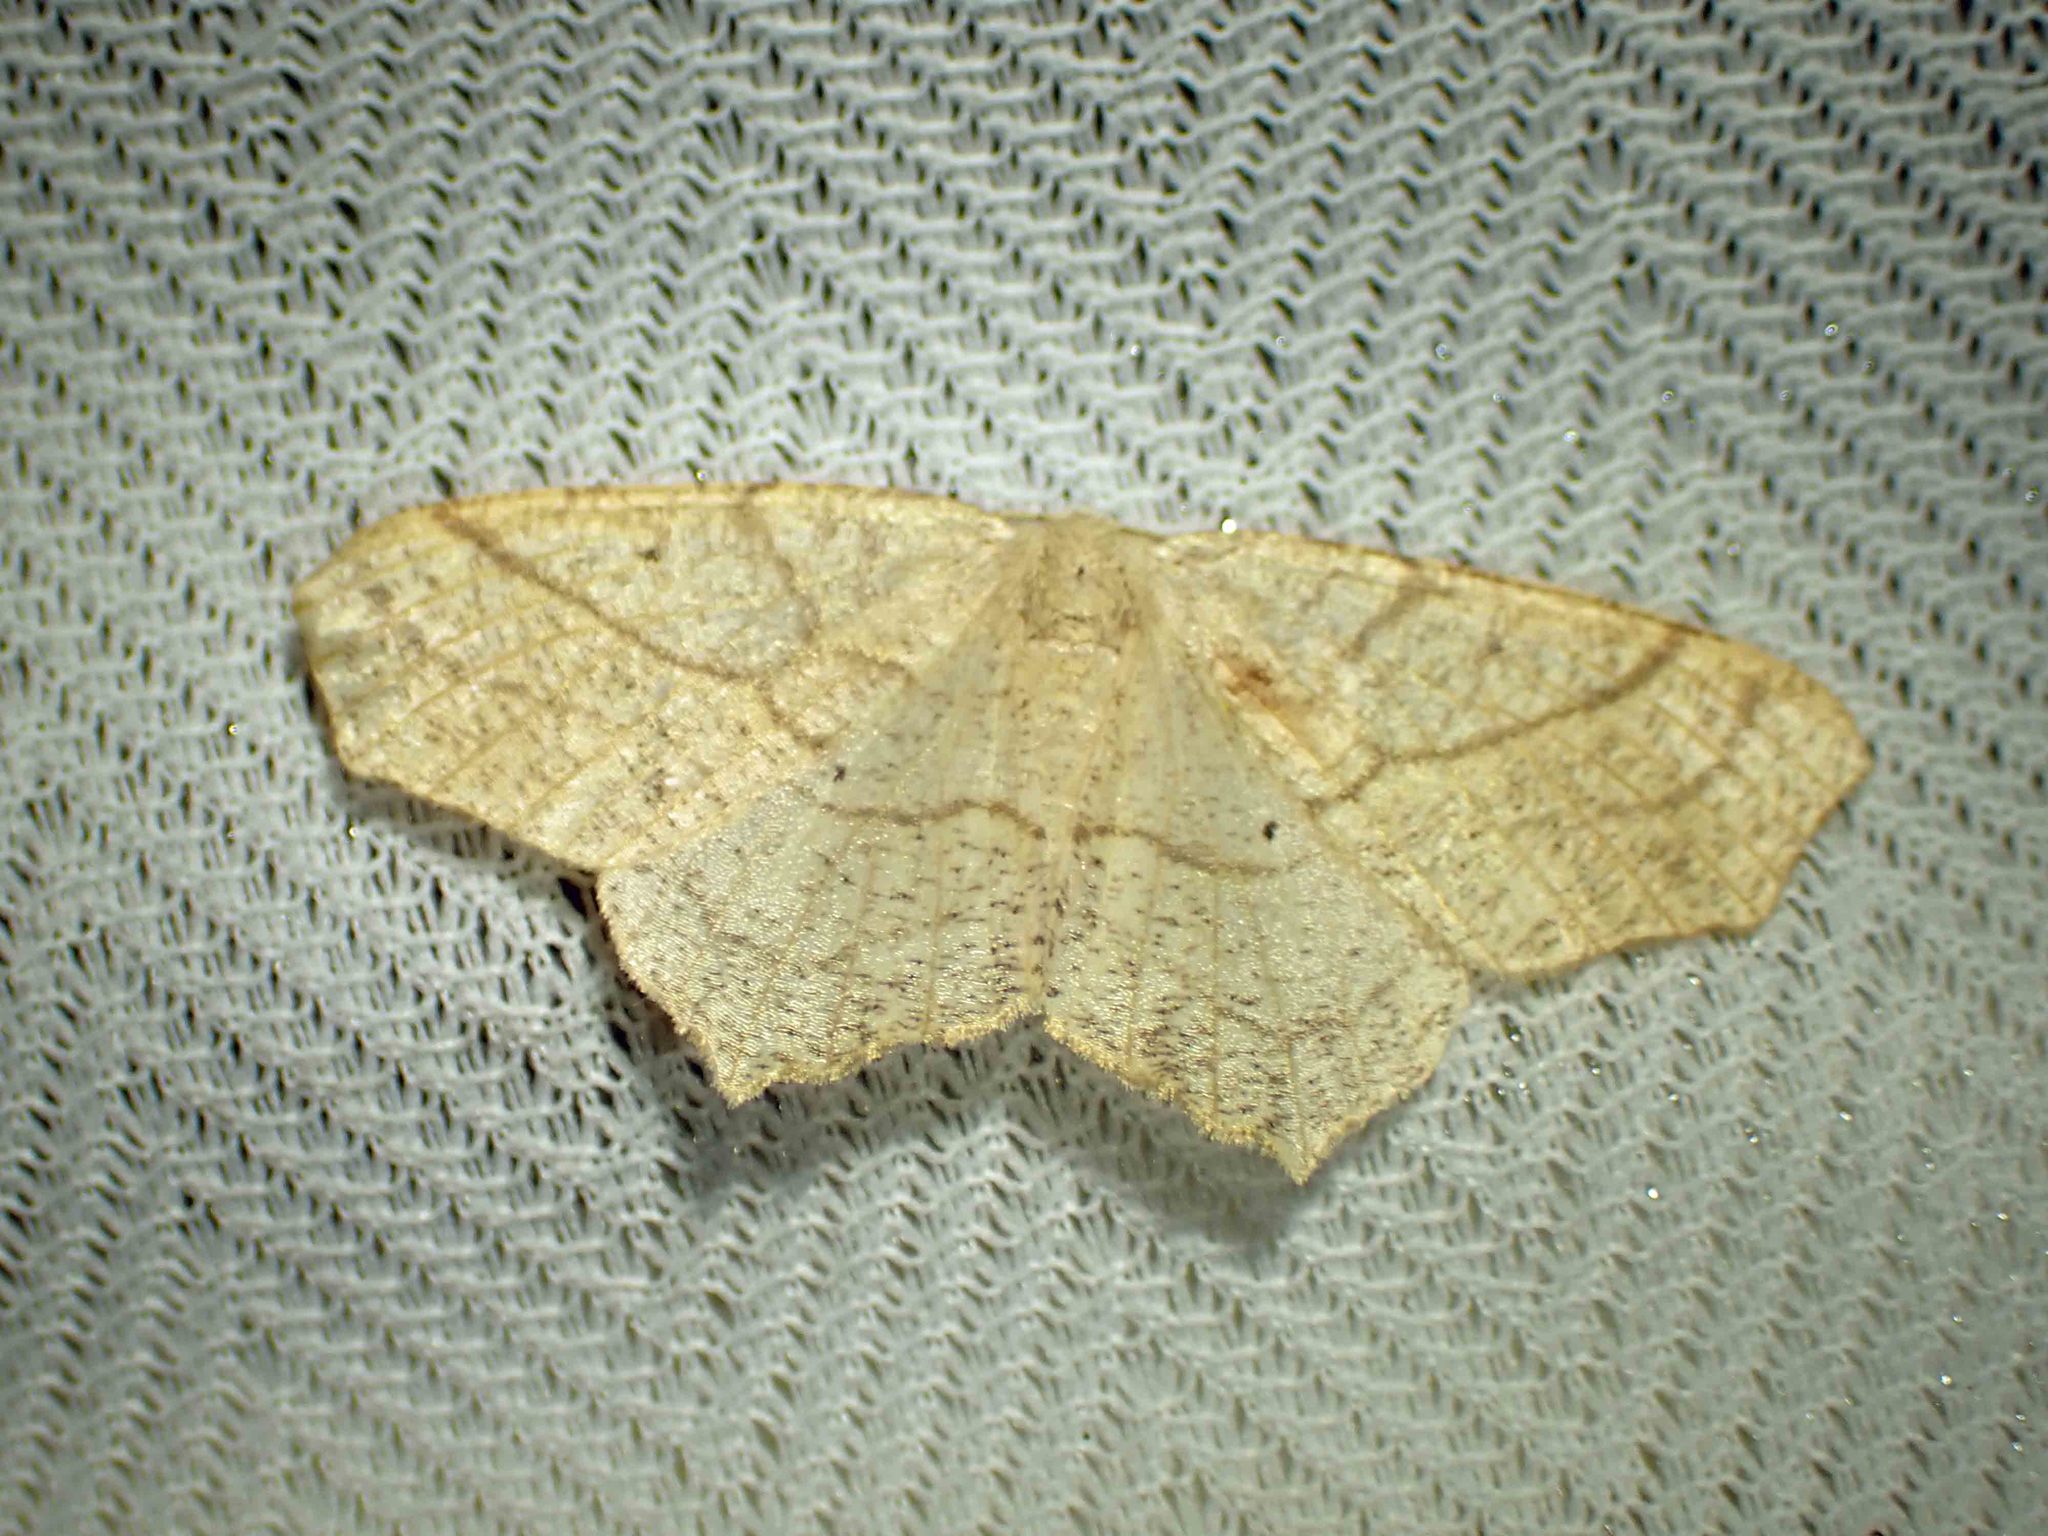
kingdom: Animalia
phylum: Arthropoda
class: Insecta
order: Lepidoptera
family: Geometridae
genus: Besma
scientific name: Besma quercivoraria
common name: Oak besma
